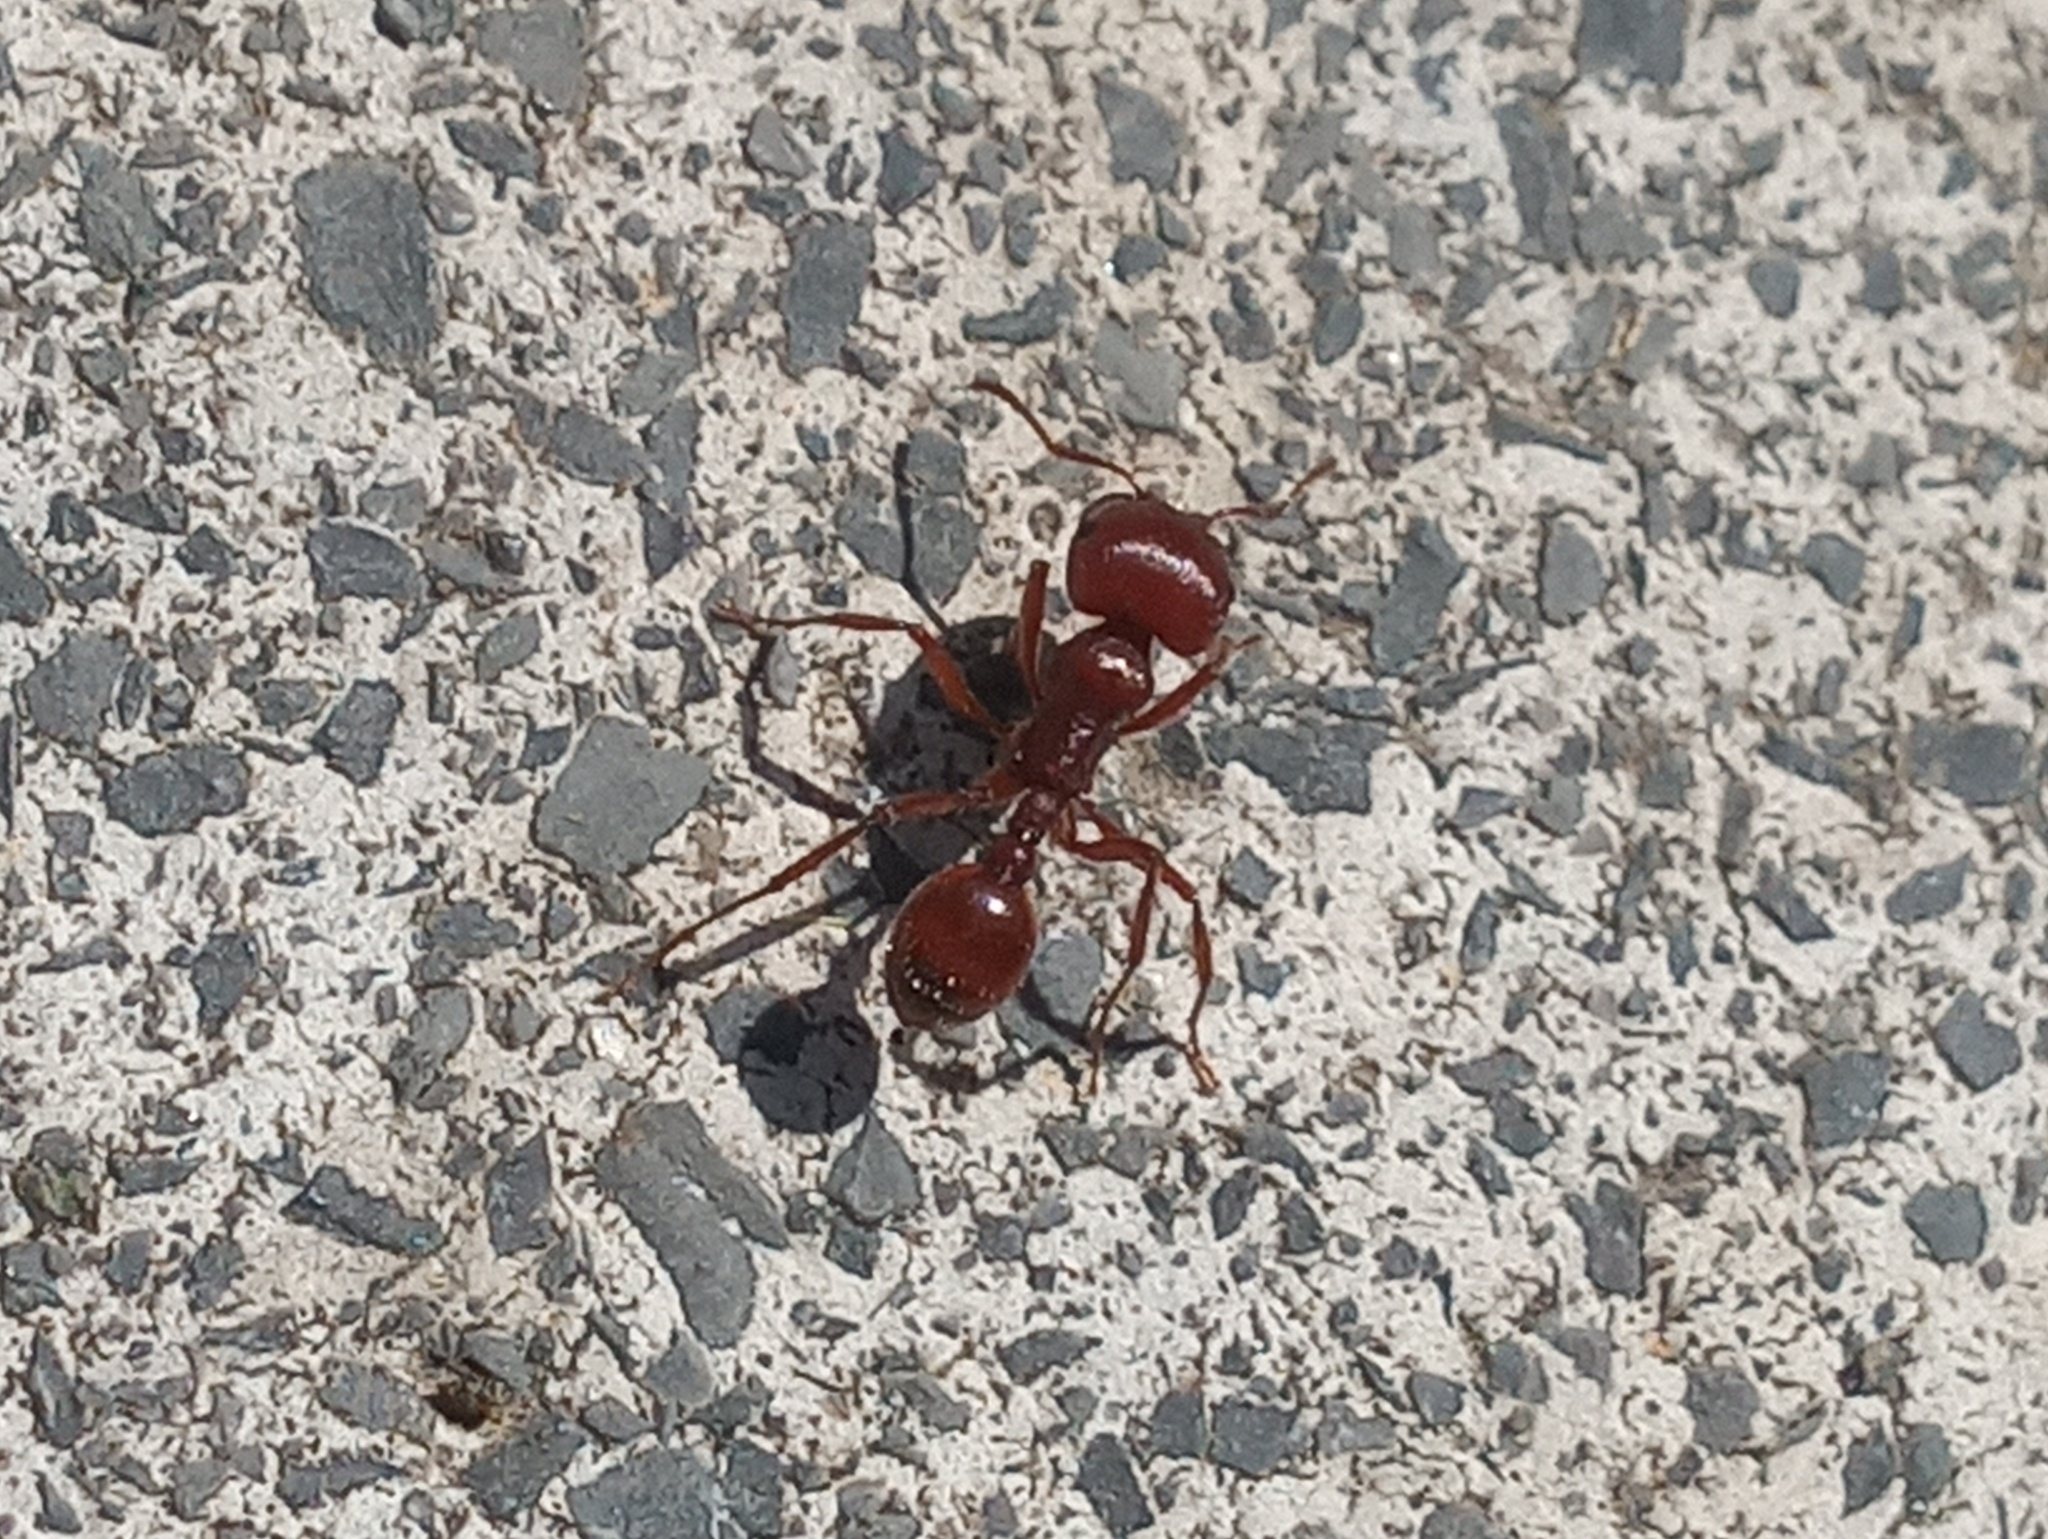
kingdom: Animalia
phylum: Arthropoda
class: Insecta
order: Hymenoptera
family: Formicidae
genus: Pogonomyrmex
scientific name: Pogonomyrmex barbatus
